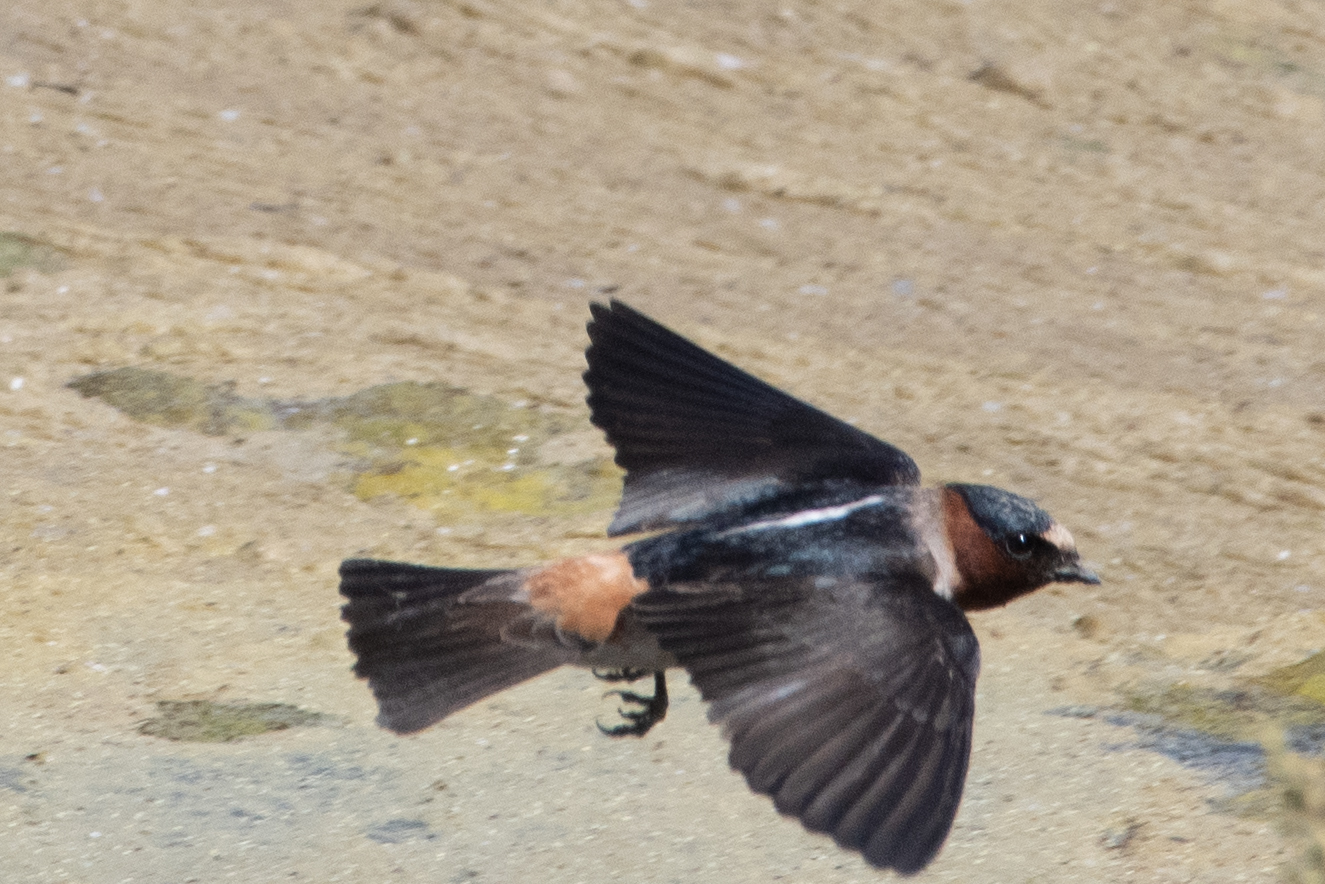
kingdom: Animalia
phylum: Chordata
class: Aves
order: Passeriformes
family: Hirundinidae
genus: Petrochelidon
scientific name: Petrochelidon pyrrhonota
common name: American cliff swallow
